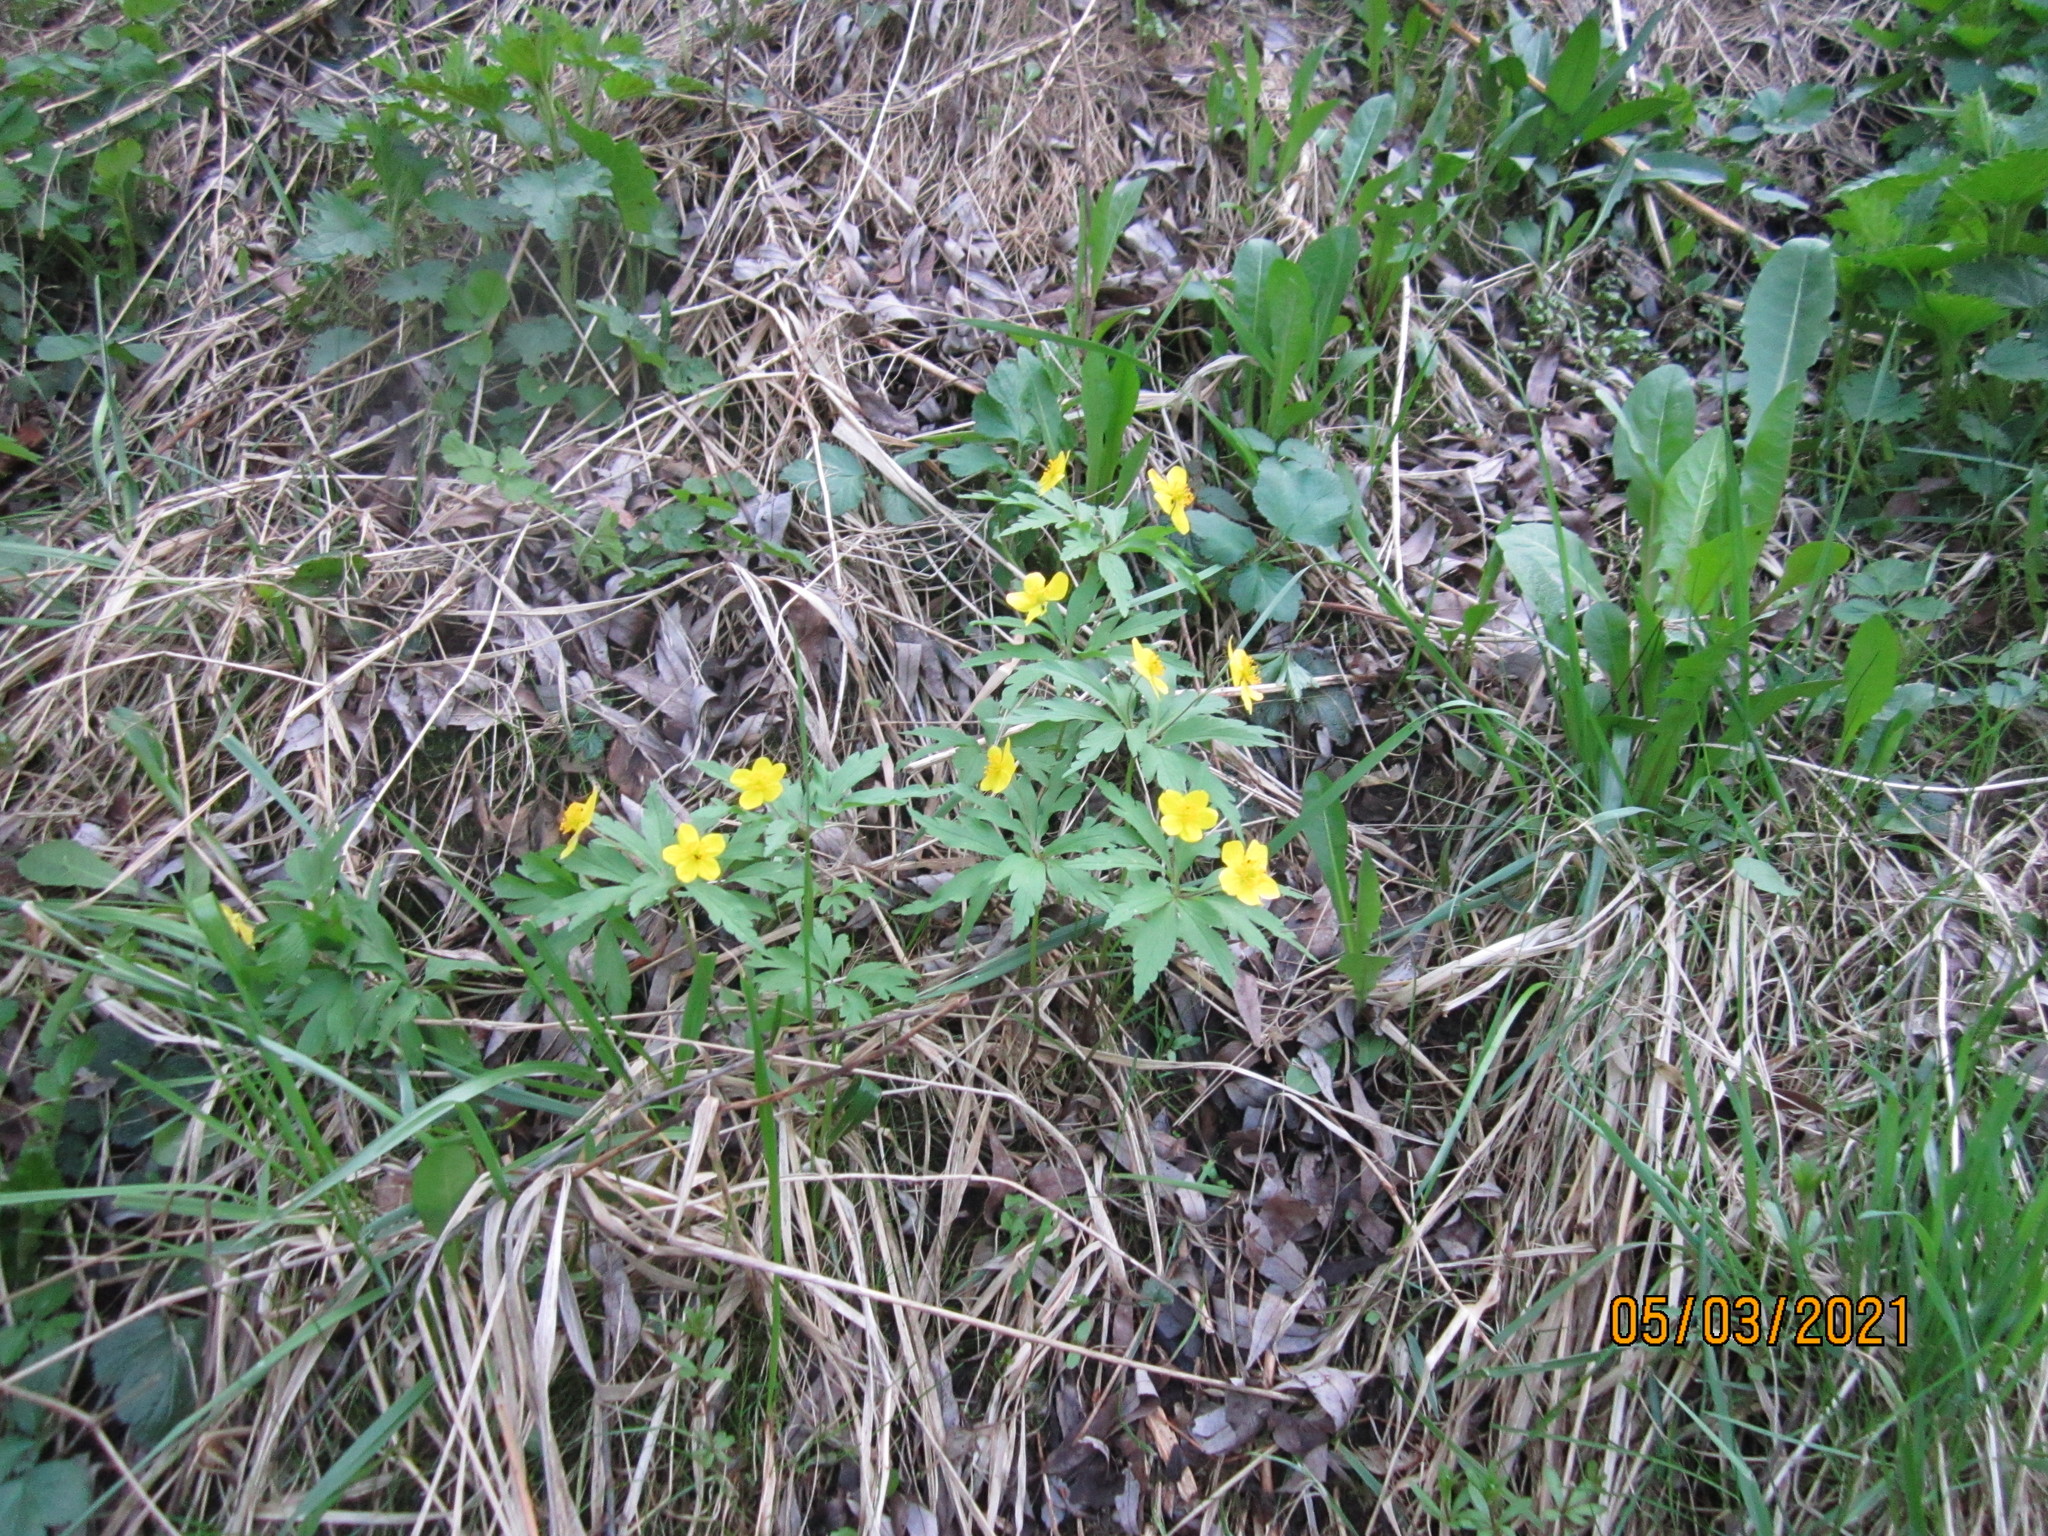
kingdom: Plantae
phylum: Tracheophyta
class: Magnoliopsida
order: Ranunculales
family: Ranunculaceae
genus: Anemone
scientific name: Anemone ranunculoides
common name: Yellow anemone
